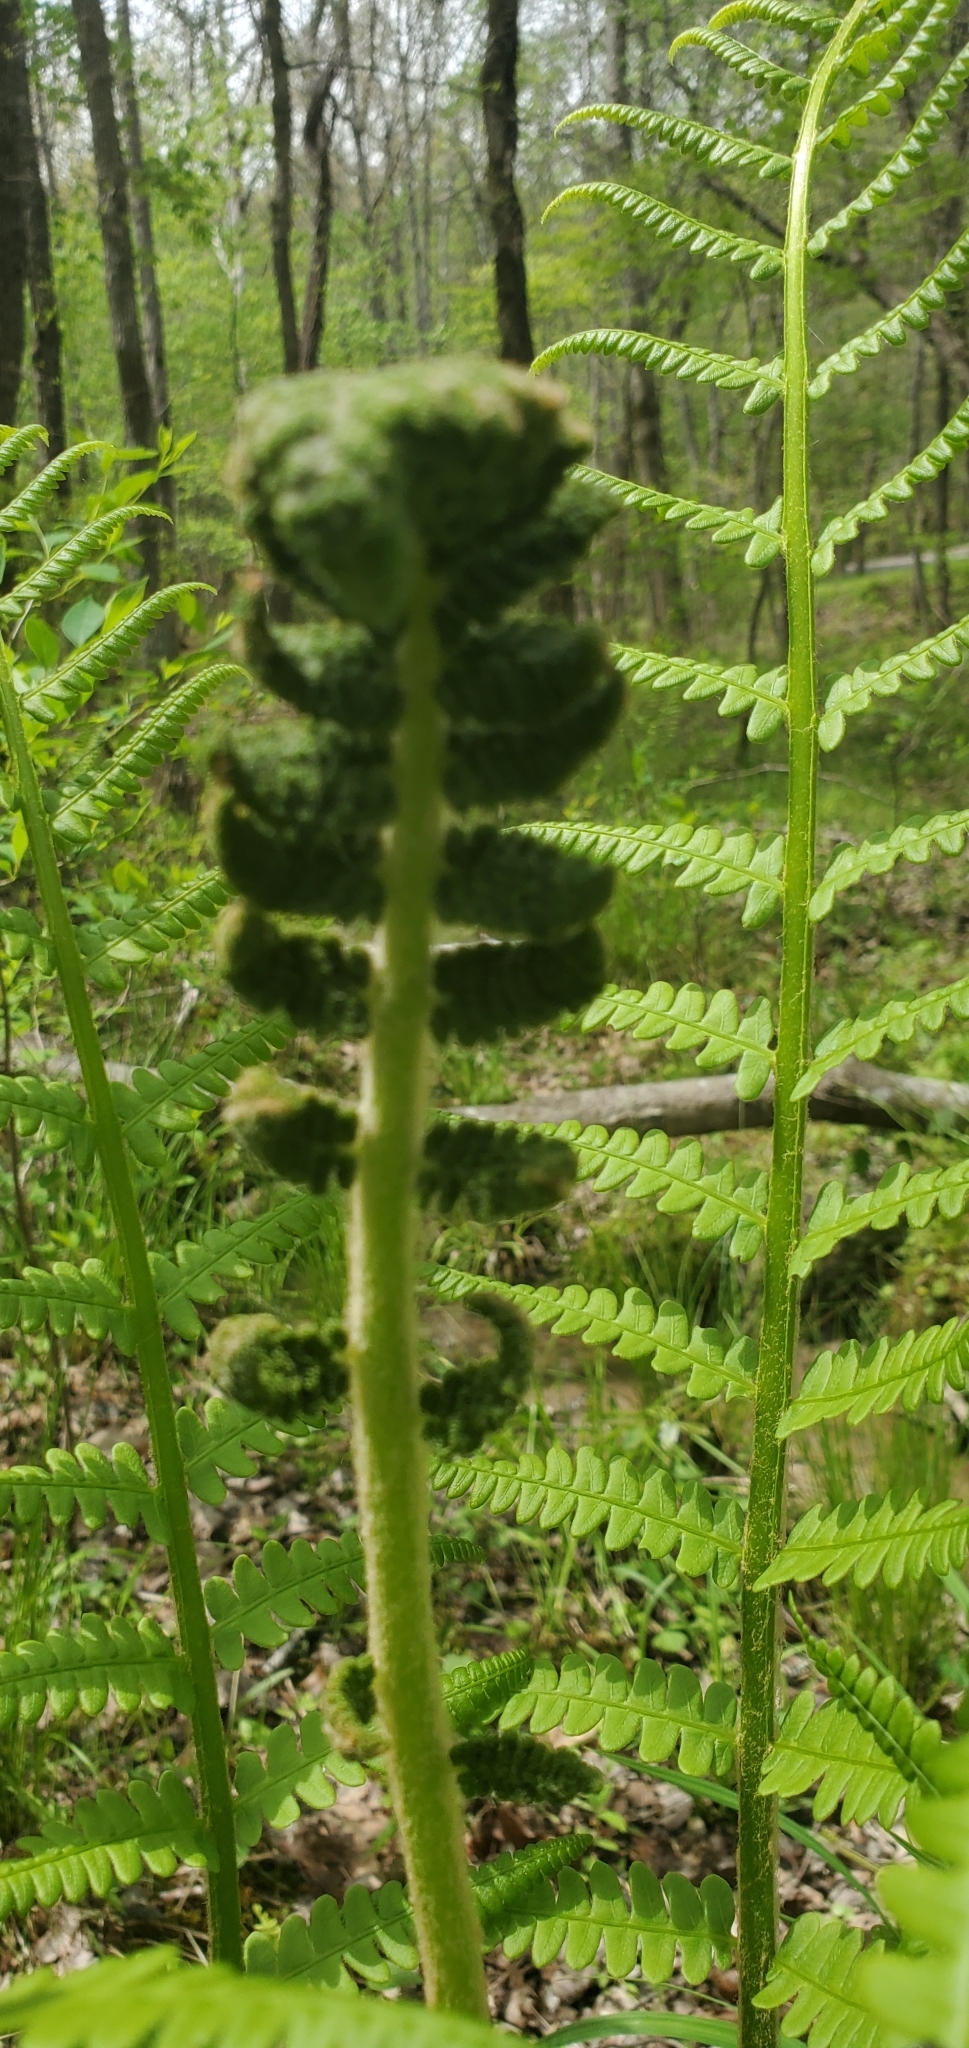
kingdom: Plantae
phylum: Tracheophyta
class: Polypodiopsida
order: Osmundales
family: Osmundaceae
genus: Osmundastrum
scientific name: Osmundastrum cinnamomeum
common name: Cinnamon fern
